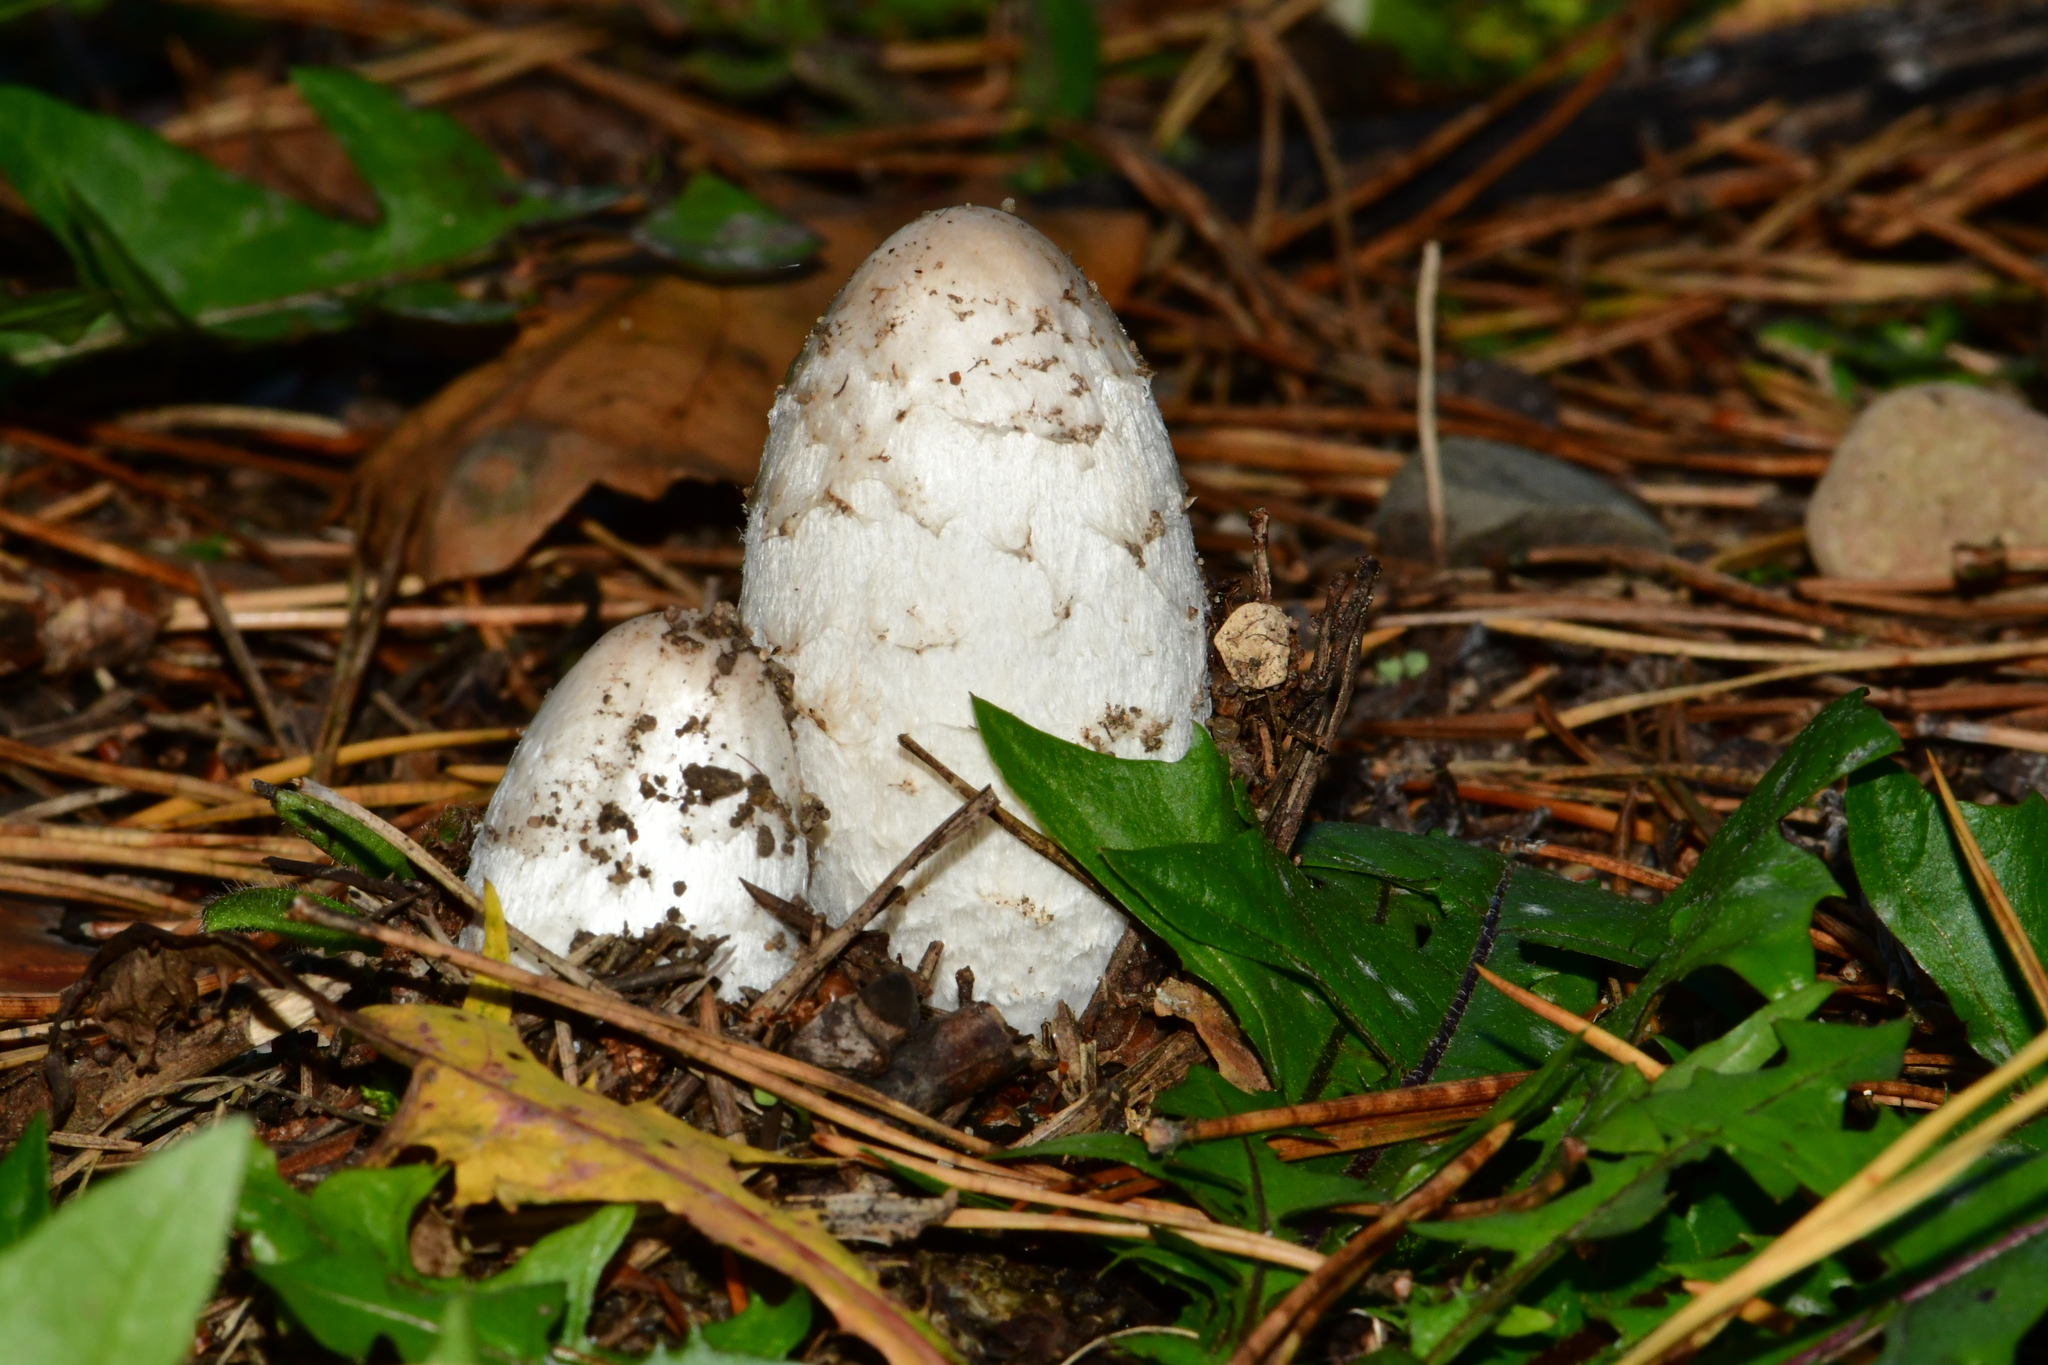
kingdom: Fungi
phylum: Basidiomycota
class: Agaricomycetes
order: Agaricales
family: Agaricaceae
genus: Coprinus
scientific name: Coprinus comatus
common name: Lawyer's wig
